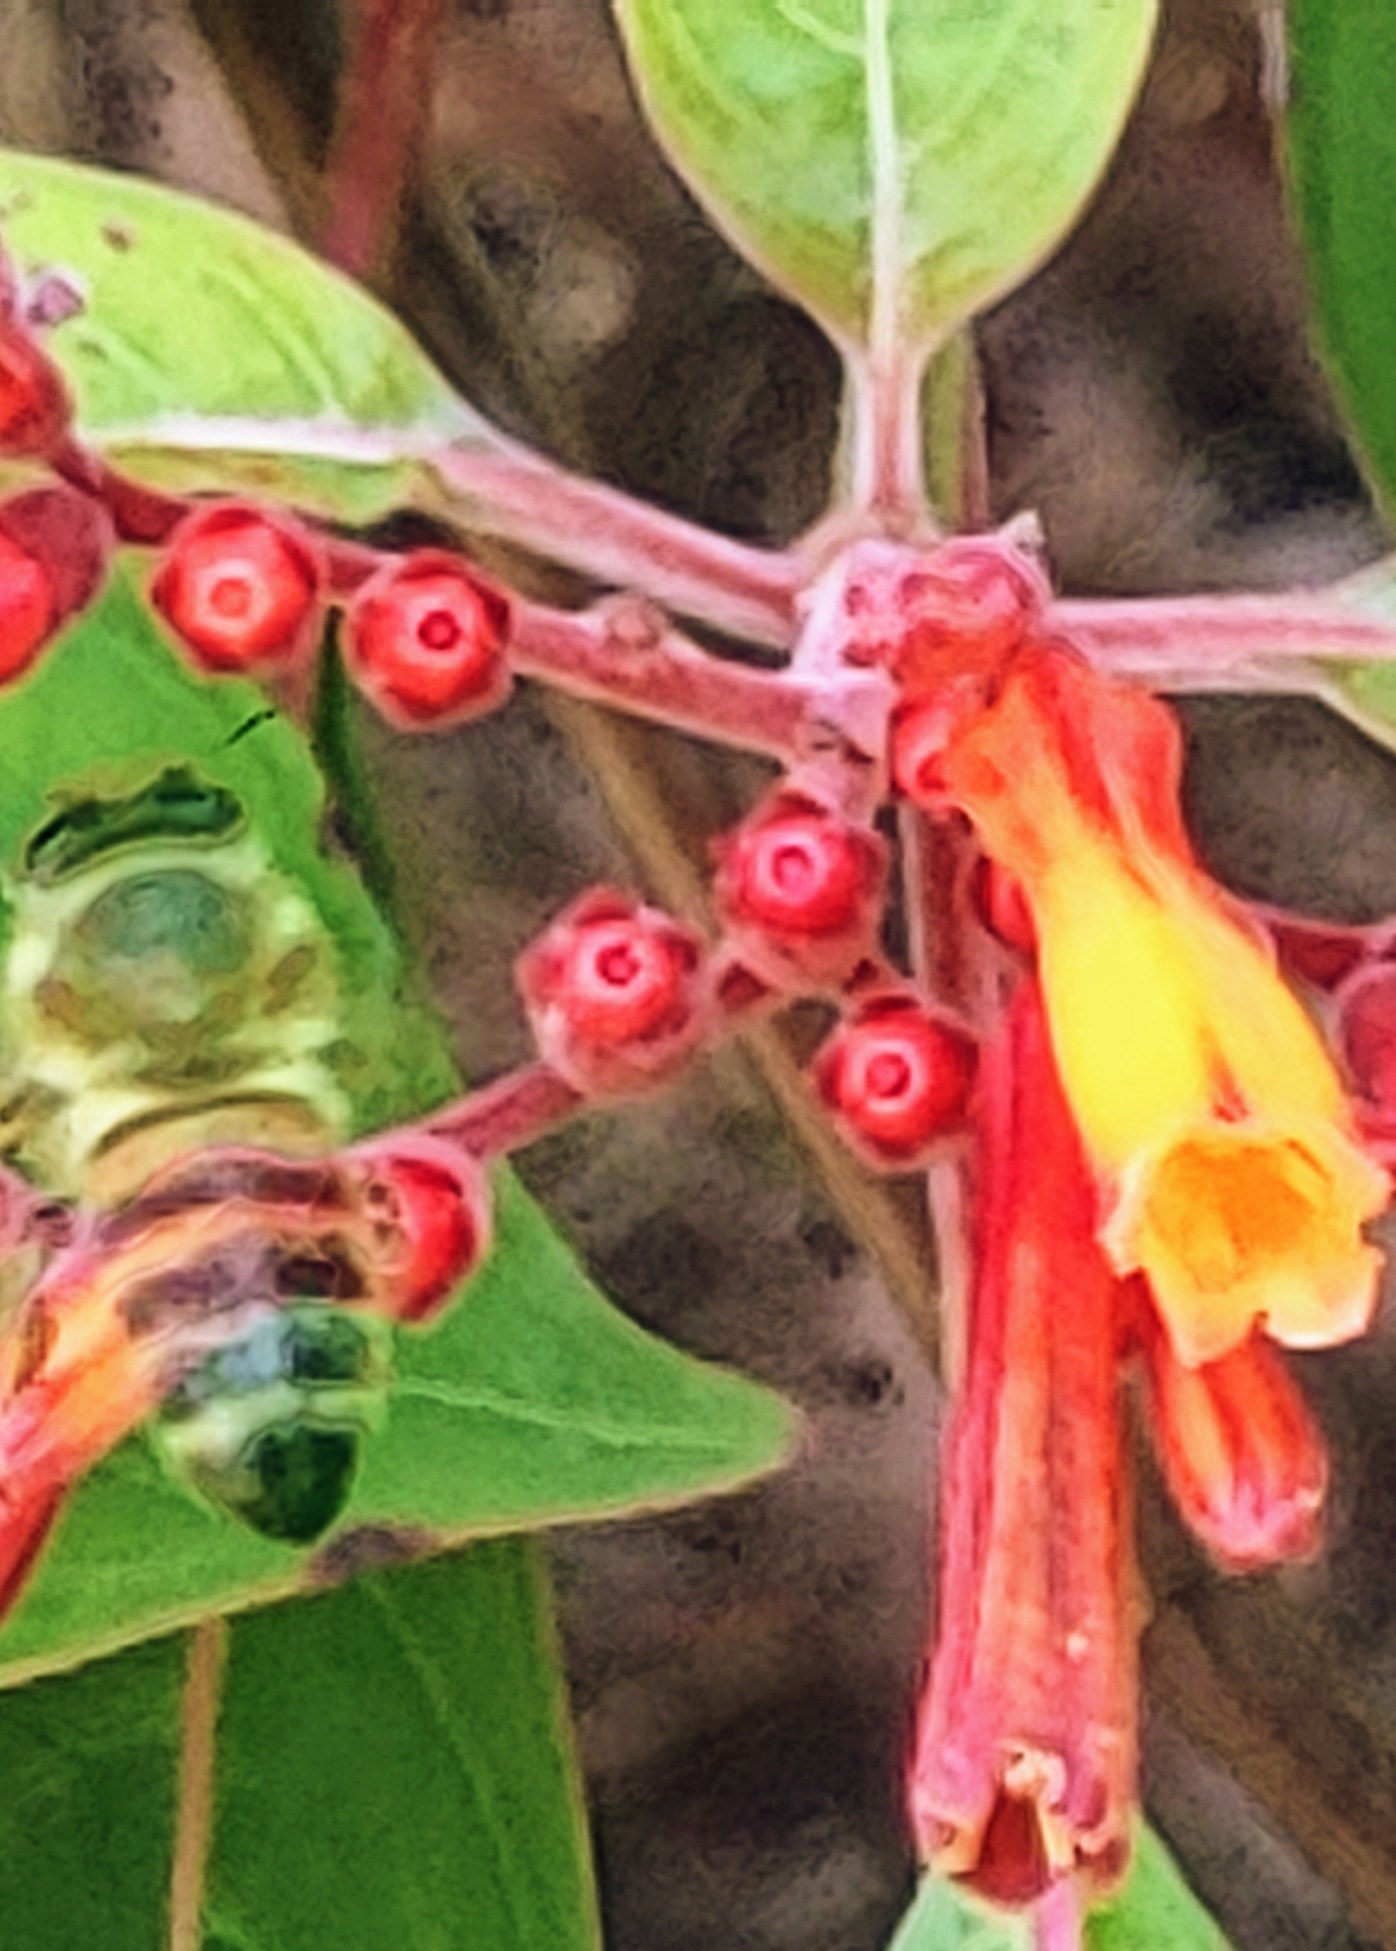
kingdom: Animalia
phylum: Arthropoda
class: Insecta
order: Hymenoptera
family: Apidae
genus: Apis
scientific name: Apis mellifera
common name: Honey bee
